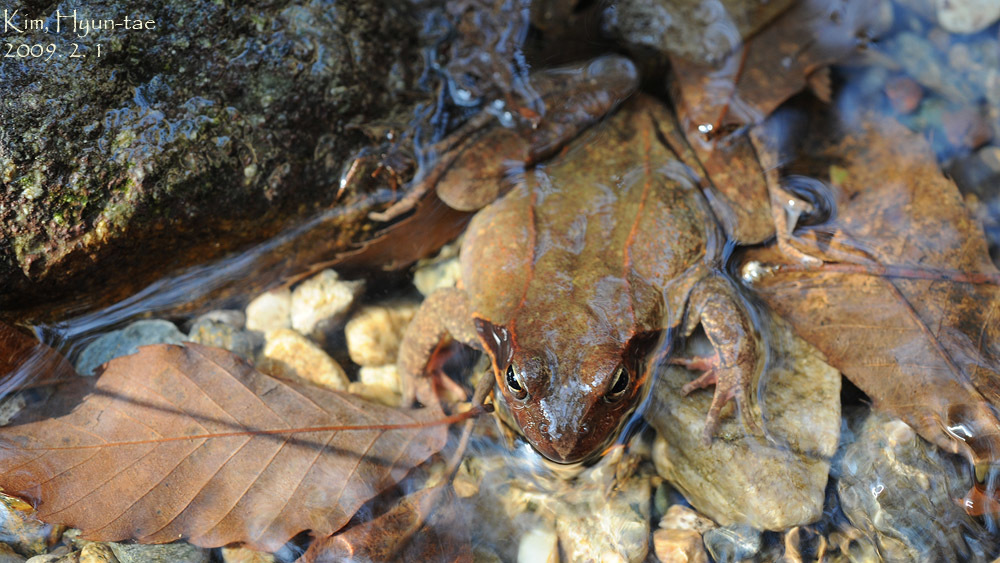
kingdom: Animalia
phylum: Chordata
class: Amphibia
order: Anura
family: Ranidae
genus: Rana
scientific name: Rana uenoi
